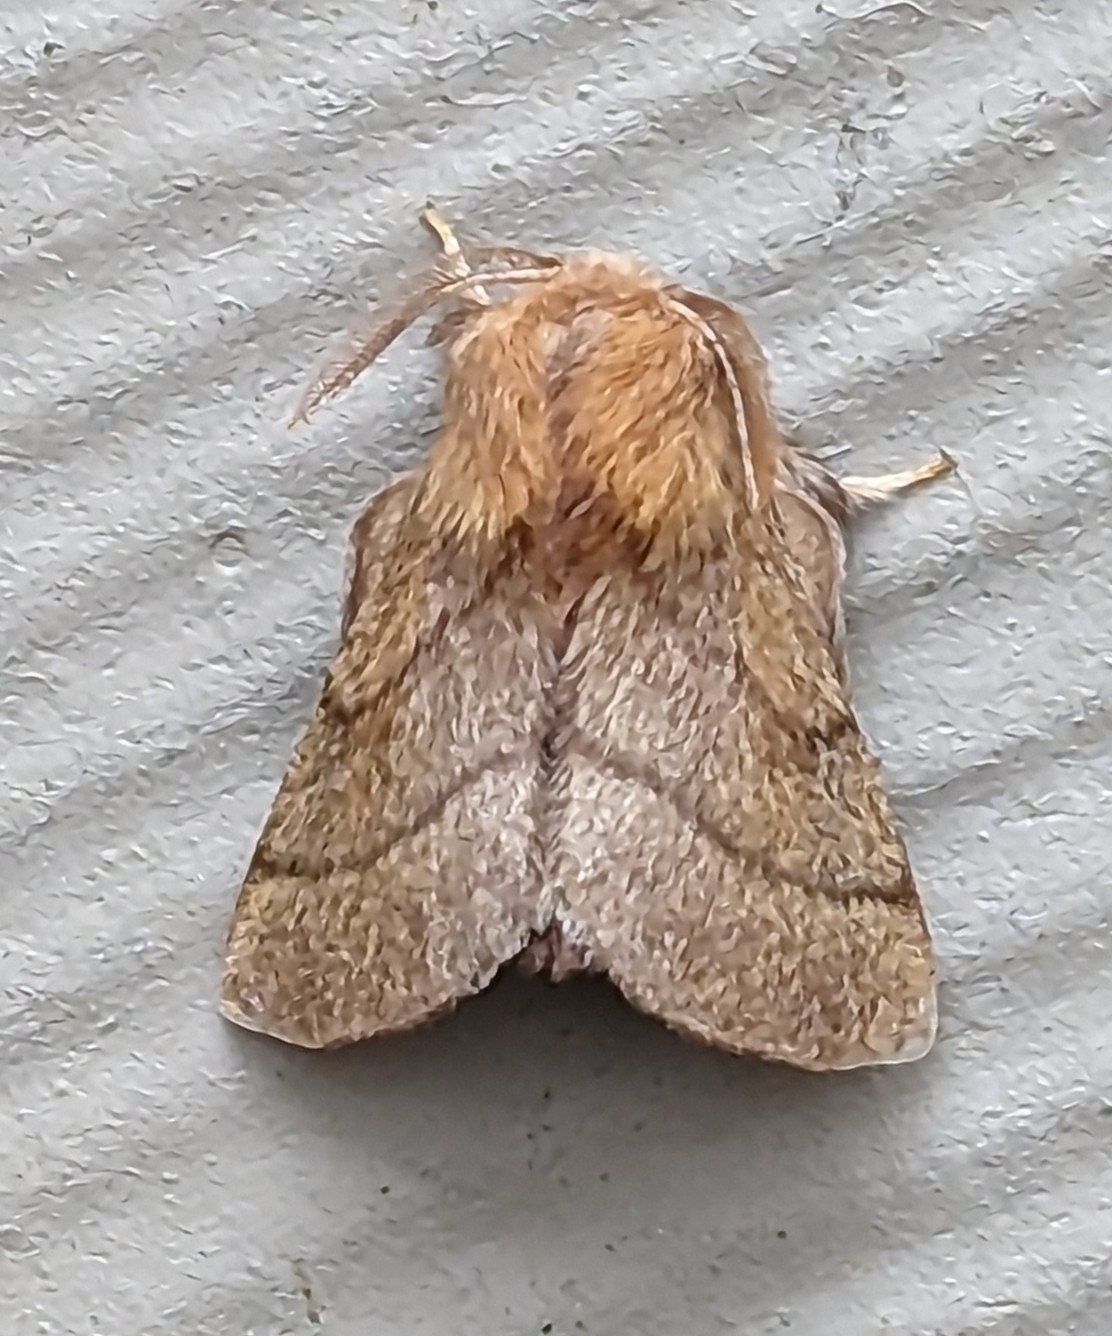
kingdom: Animalia
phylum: Arthropoda
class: Insecta
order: Lepidoptera
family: Lasiocampidae
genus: Malacosoma
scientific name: Malacosoma disstria
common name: Forest tent caterpillar
